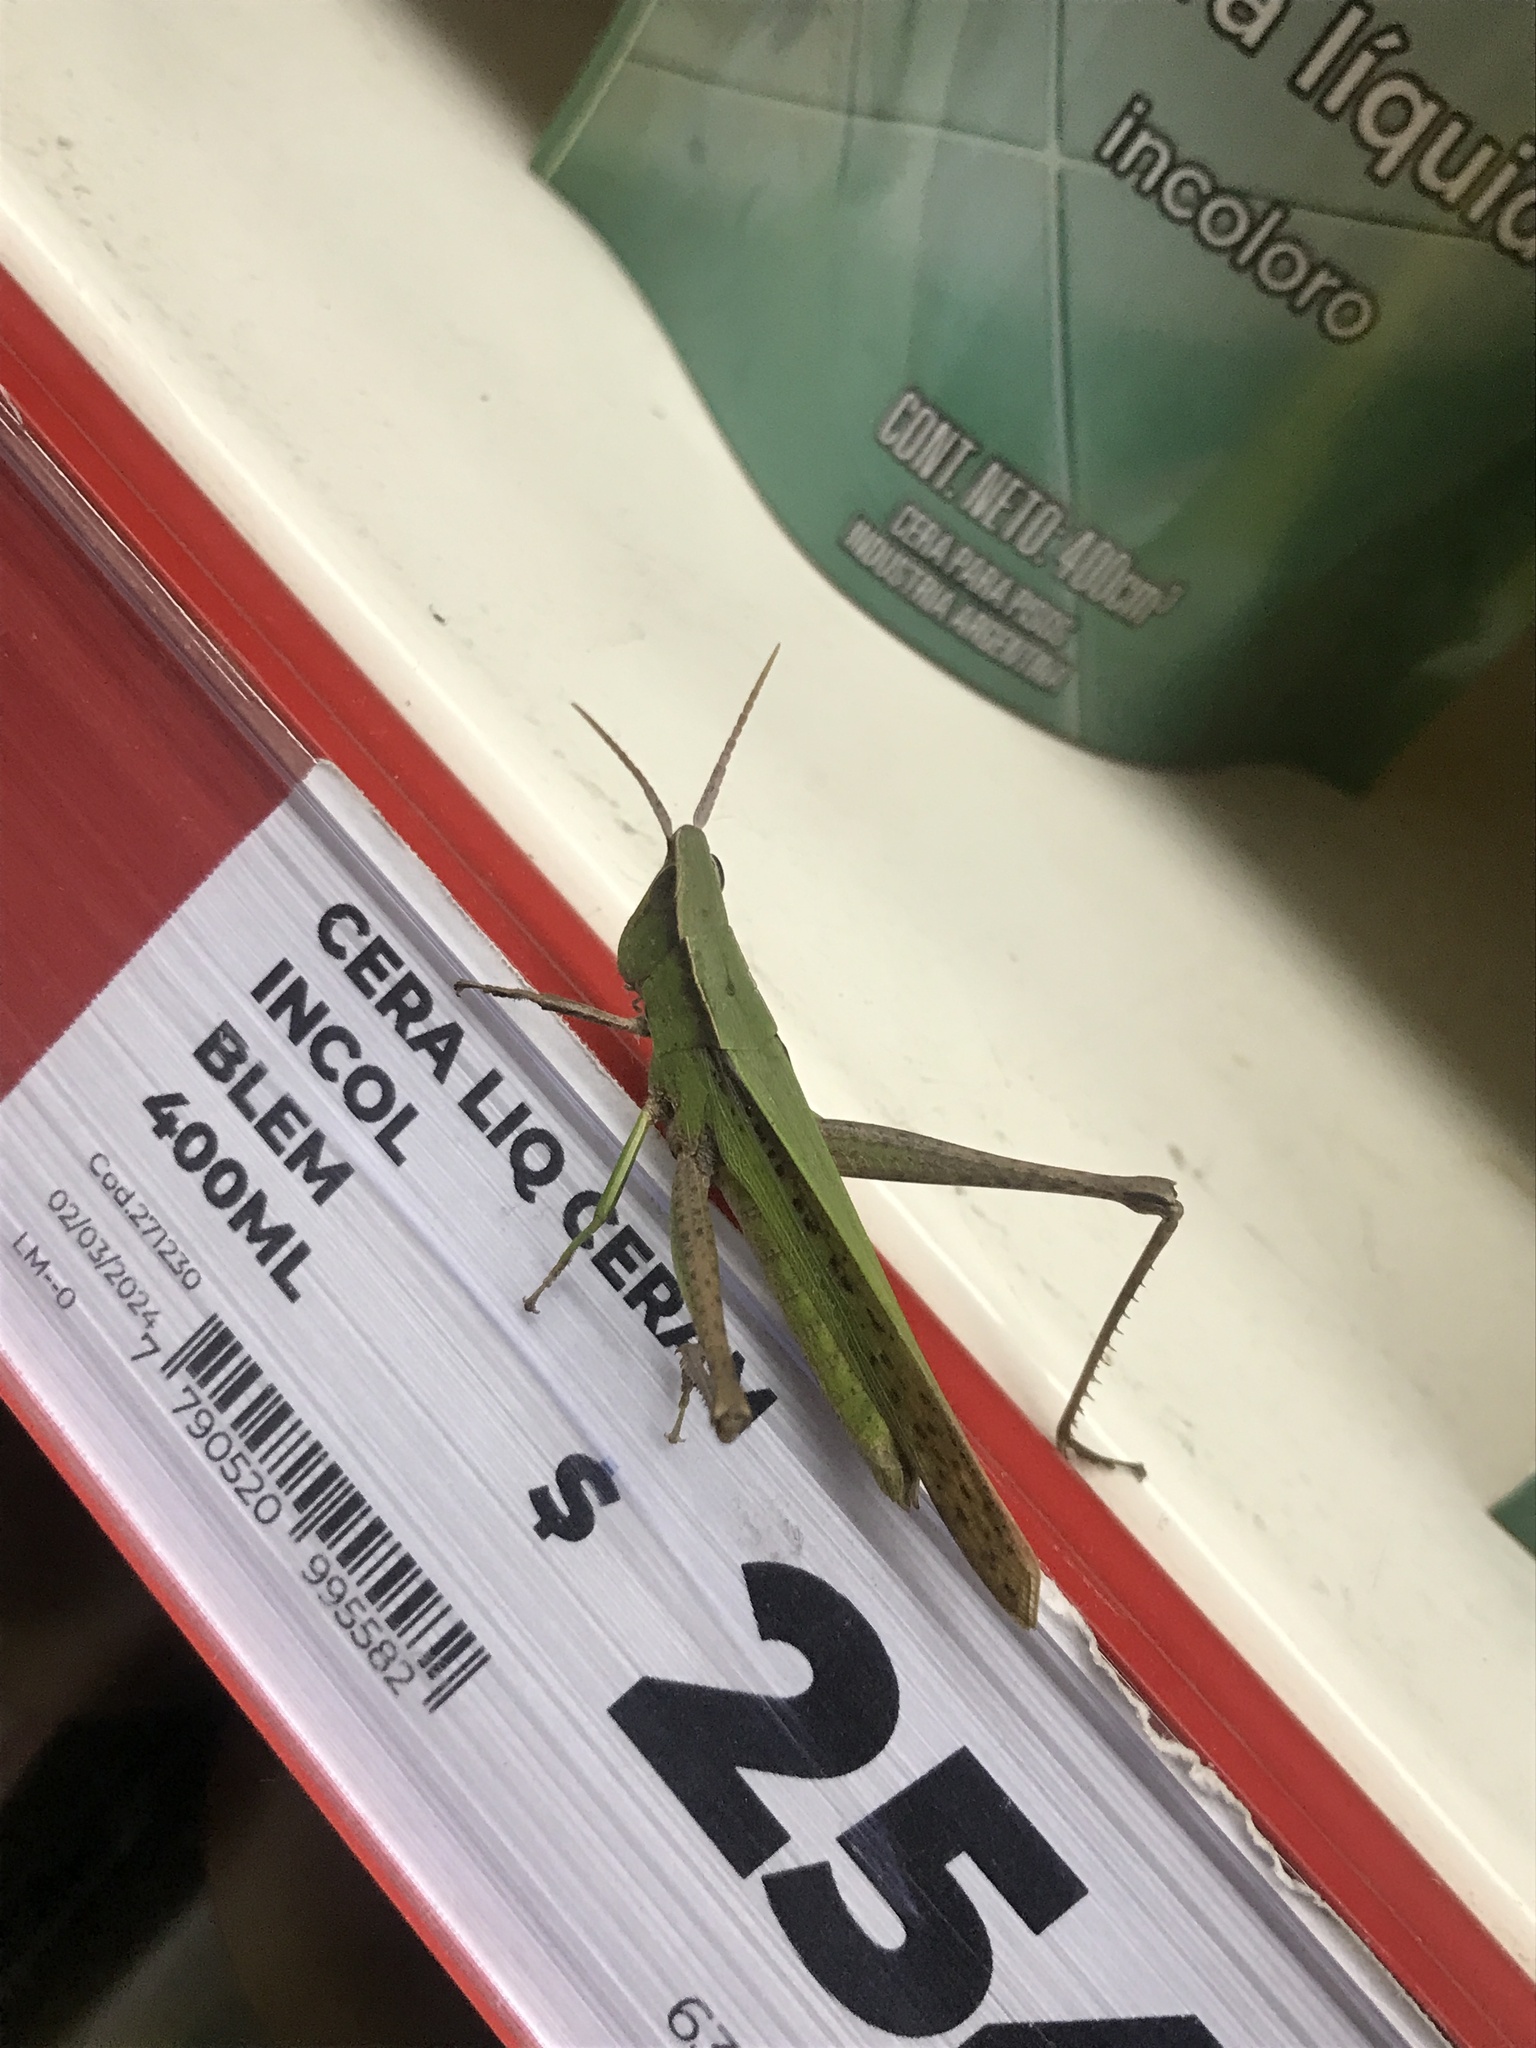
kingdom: Animalia
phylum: Arthropoda
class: Insecta
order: Orthoptera
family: Acrididae
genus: Metaleptea
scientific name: Metaleptea adspersa
